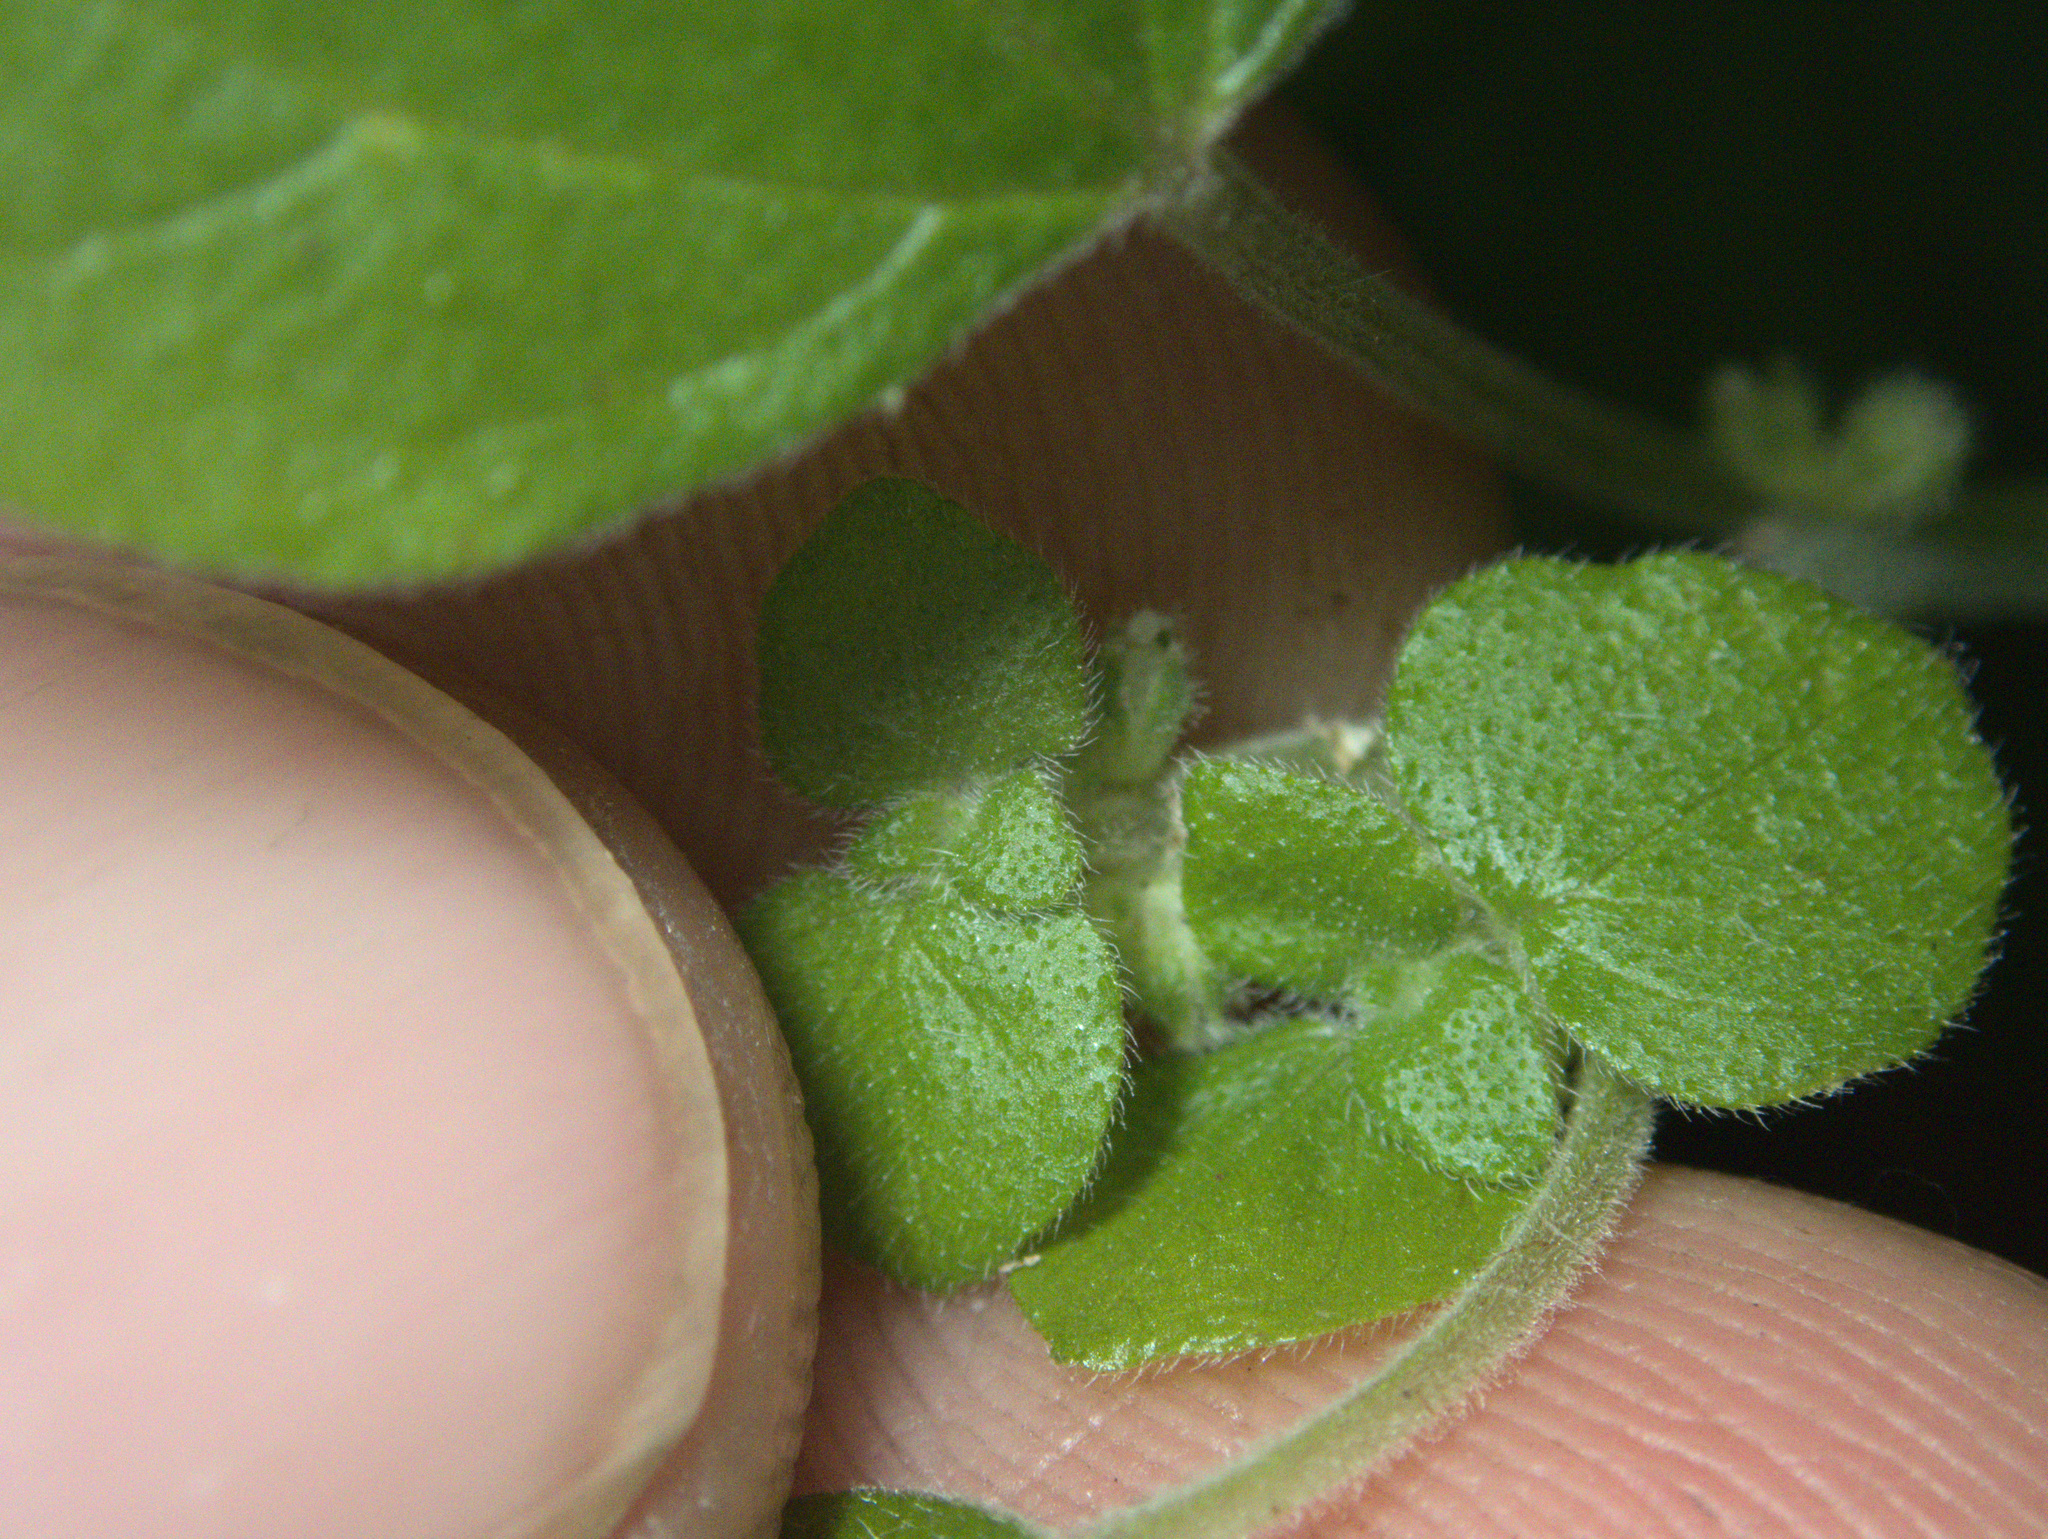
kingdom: Plantae
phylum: Tracheophyta
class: Magnoliopsida
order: Rosales
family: Urticaceae
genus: Parietaria
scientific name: Parietaria debilis
